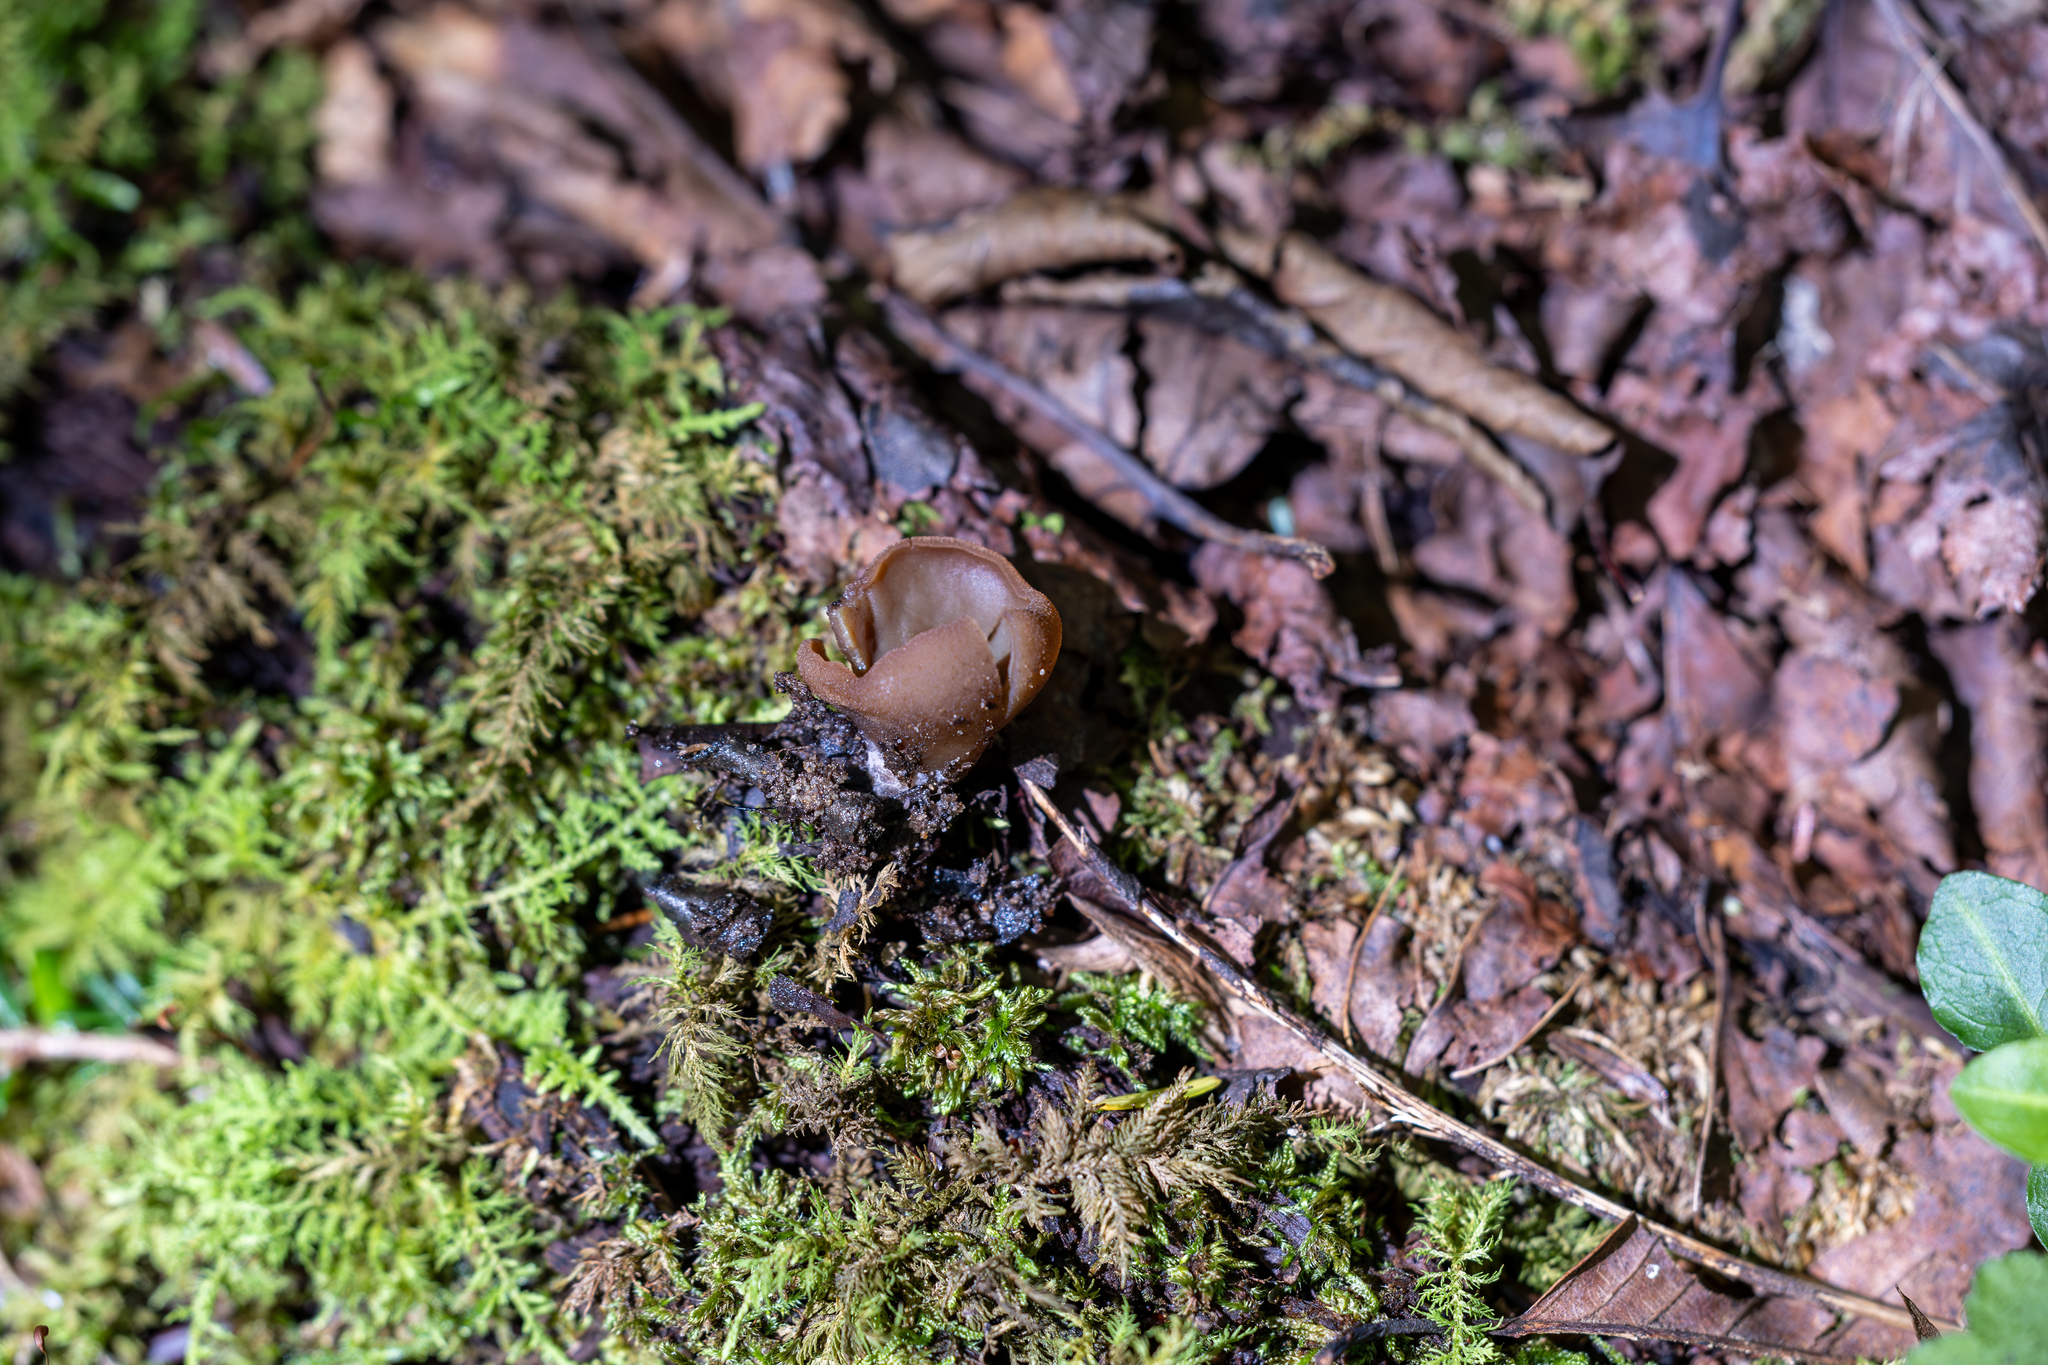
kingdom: Fungi
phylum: Ascomycota
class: Pezizomycetes
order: Pezizales
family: Pezizaceae
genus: Phylloscypha
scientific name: Phylloscypha phyllogena
